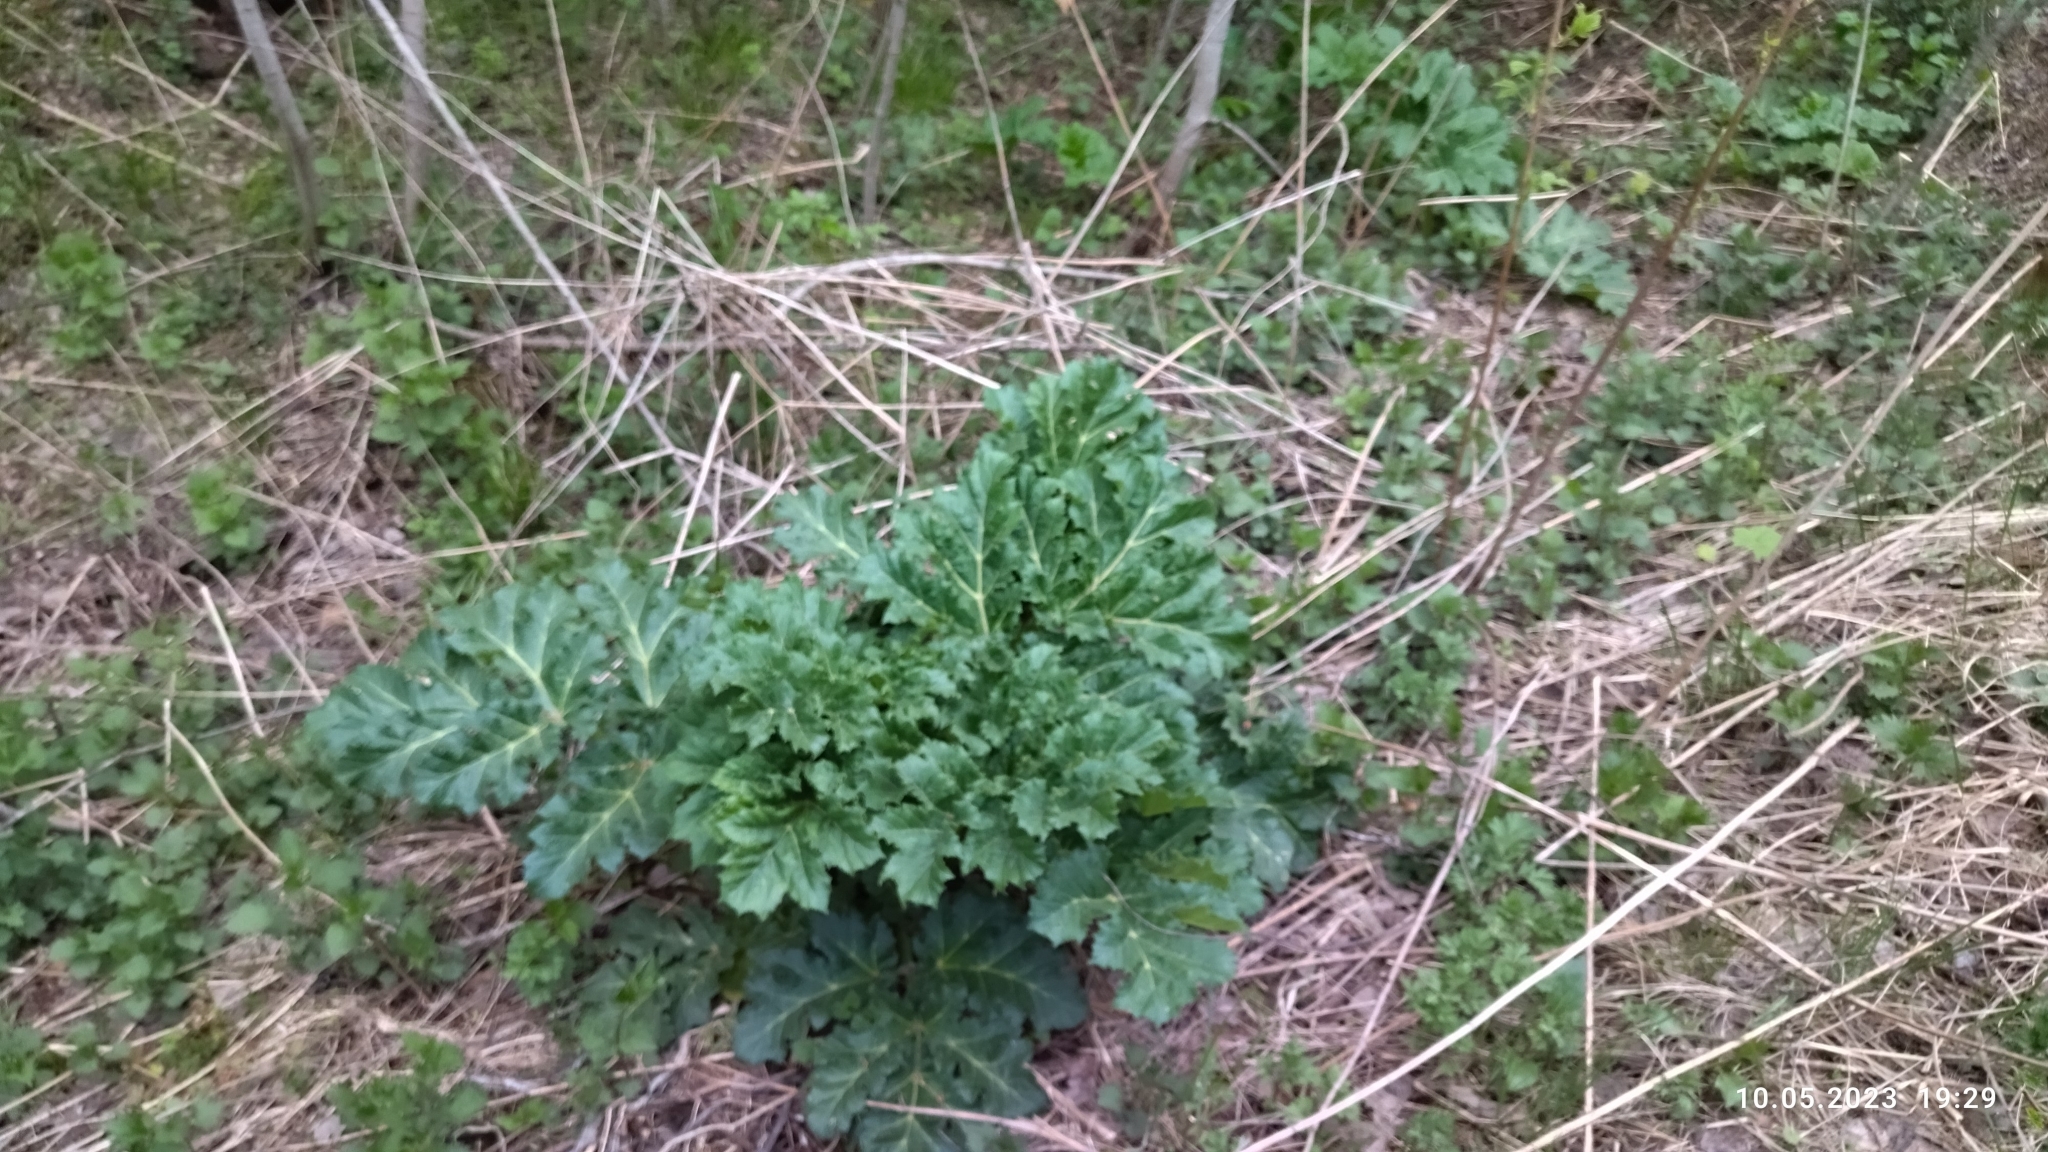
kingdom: Plantae
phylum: Tracheophyta
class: Magnoliopsida
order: Apiales
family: Apiaceae
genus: Heracleum
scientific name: Heracleum sosnowskyi
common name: Sosnowsky's hogweed
